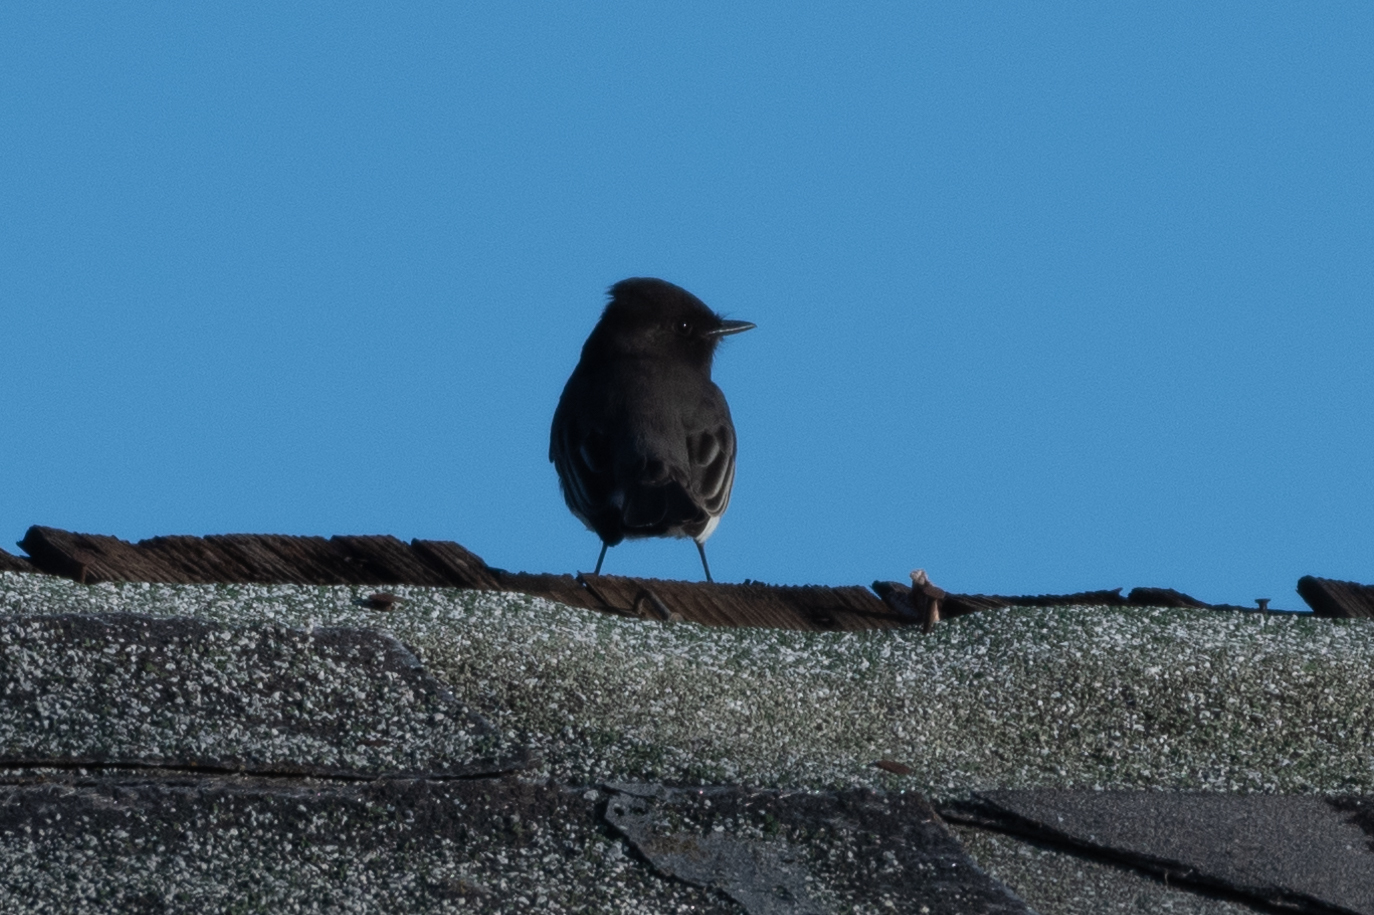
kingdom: Animalia
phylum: Chordata
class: Aves
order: Passeriformes
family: Tyrannidae
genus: Sayornis
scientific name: Sayornis nigricans
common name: Black phoebe
